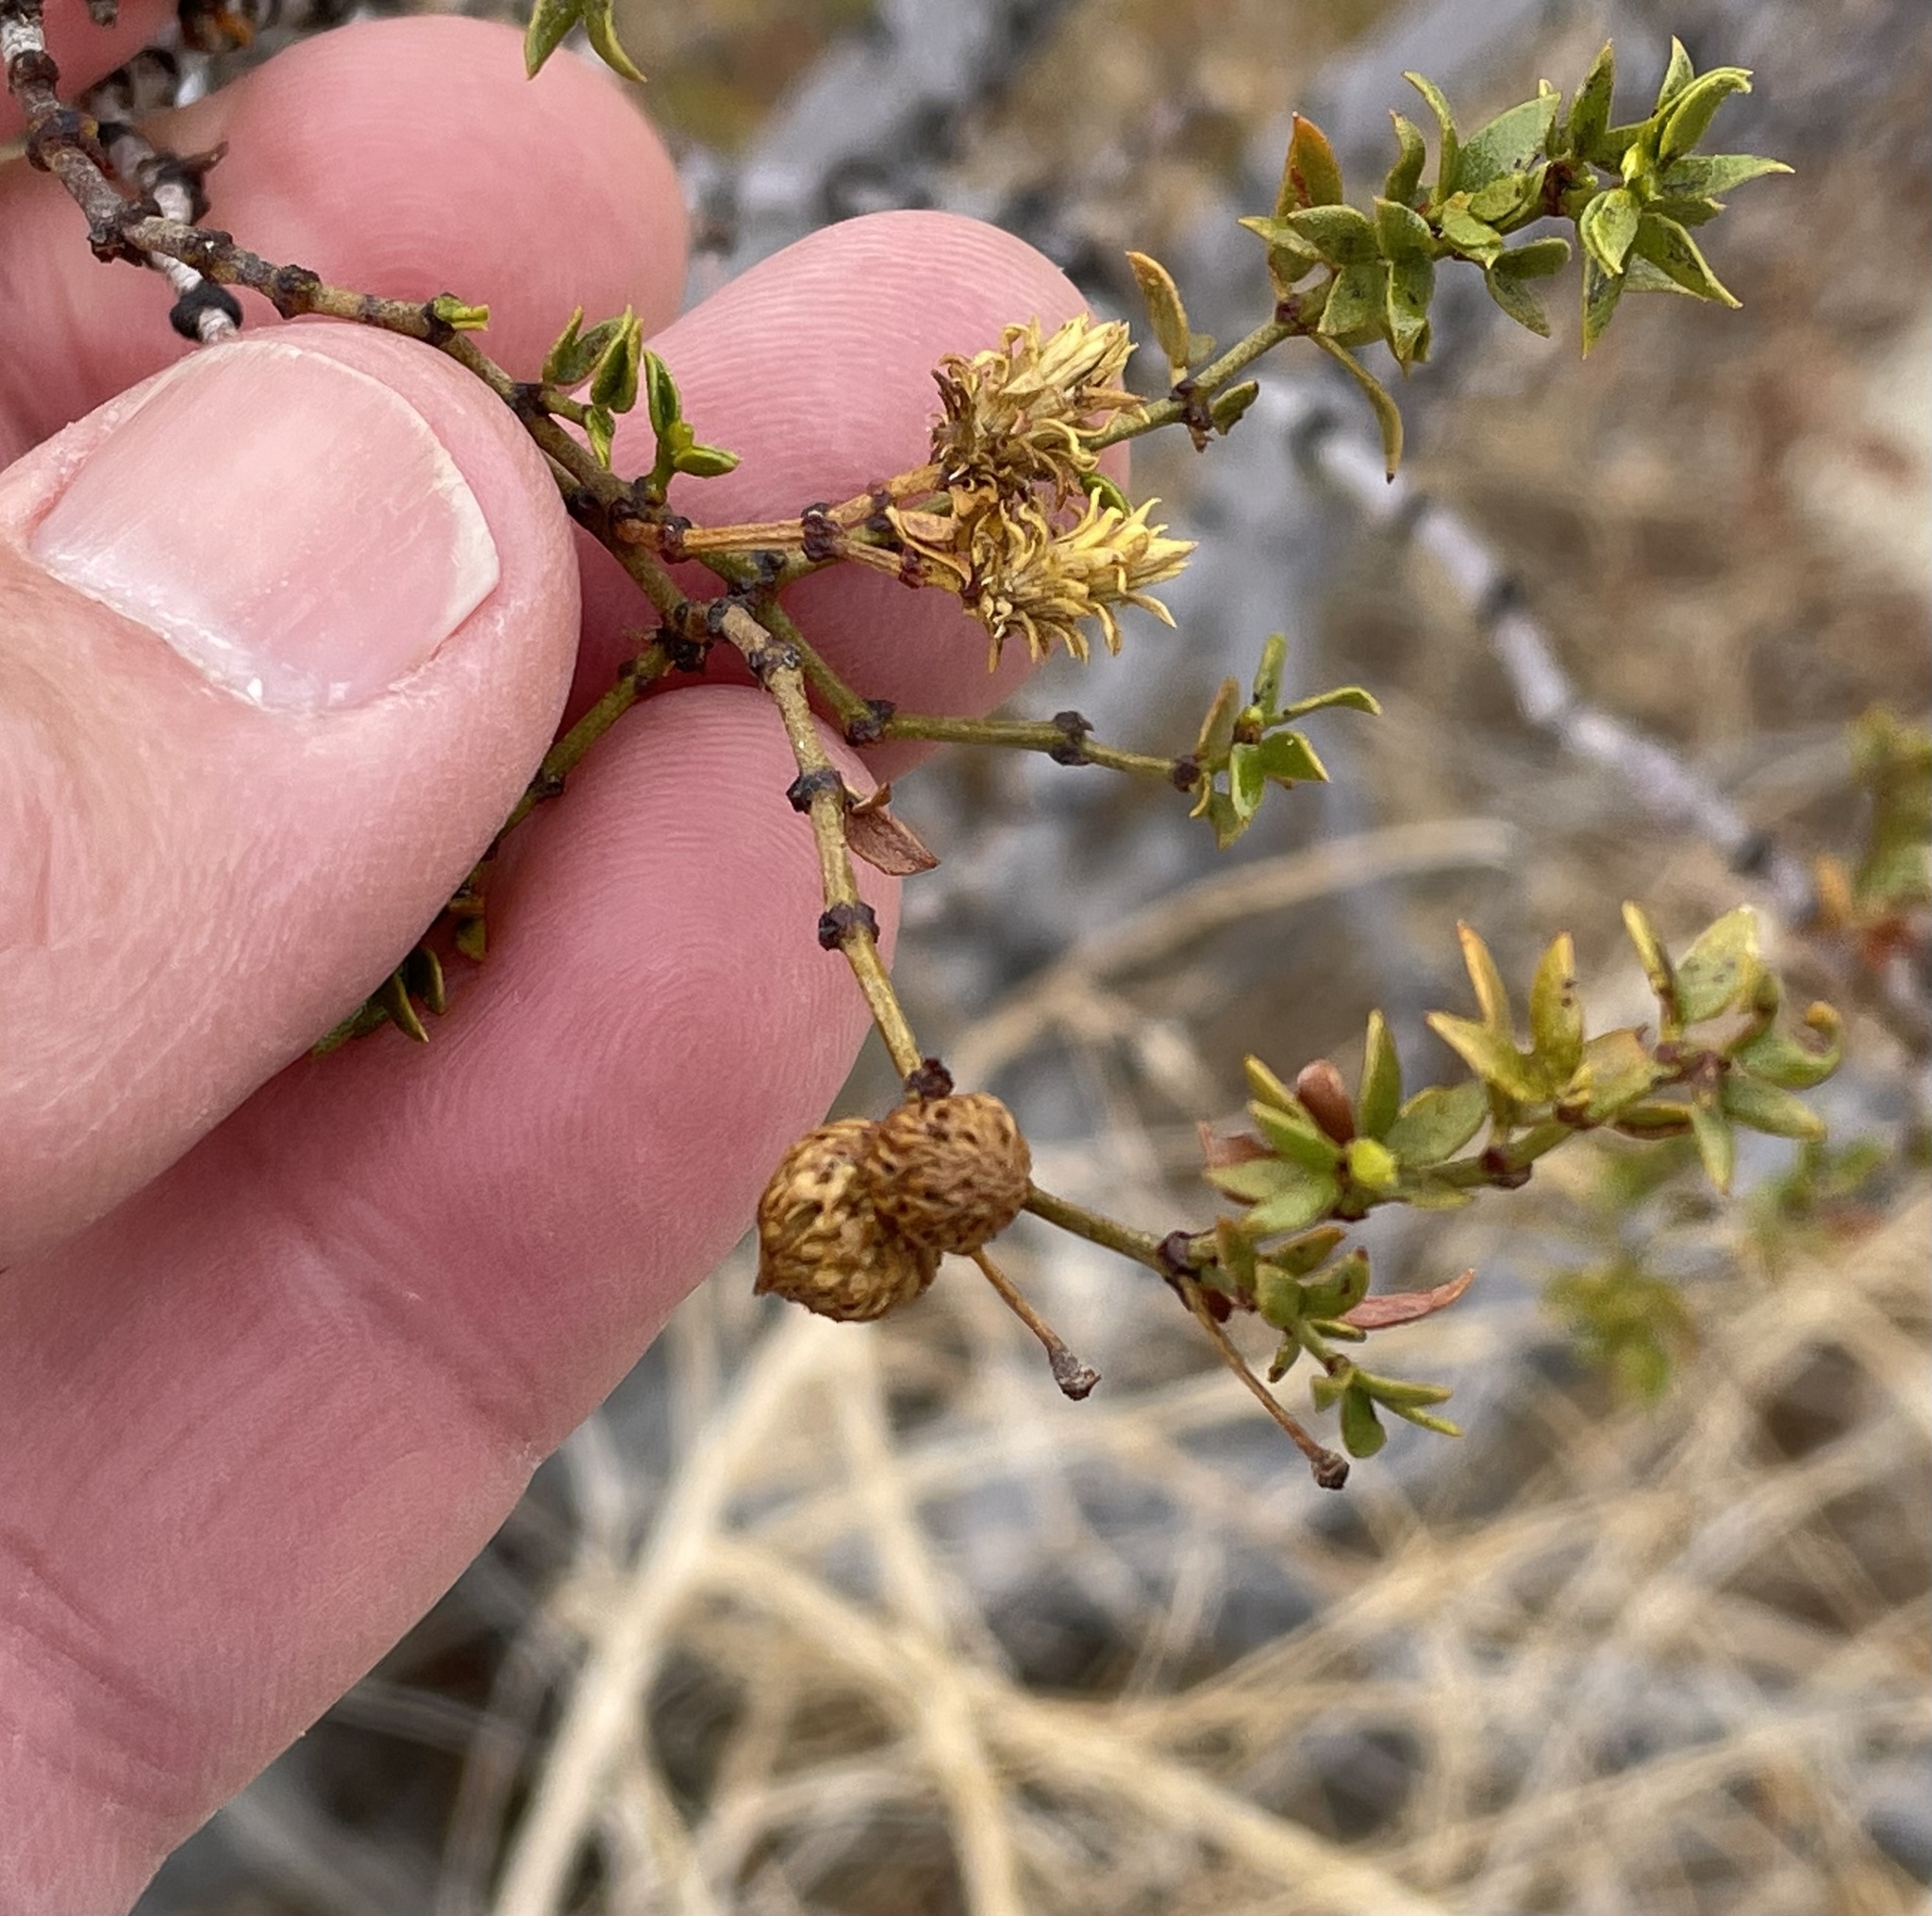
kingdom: Animalia
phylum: Arthropoda
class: Insecta
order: Diptera
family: Cecidomyiidae
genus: Asphondylia
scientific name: Asphondylia rosetta
